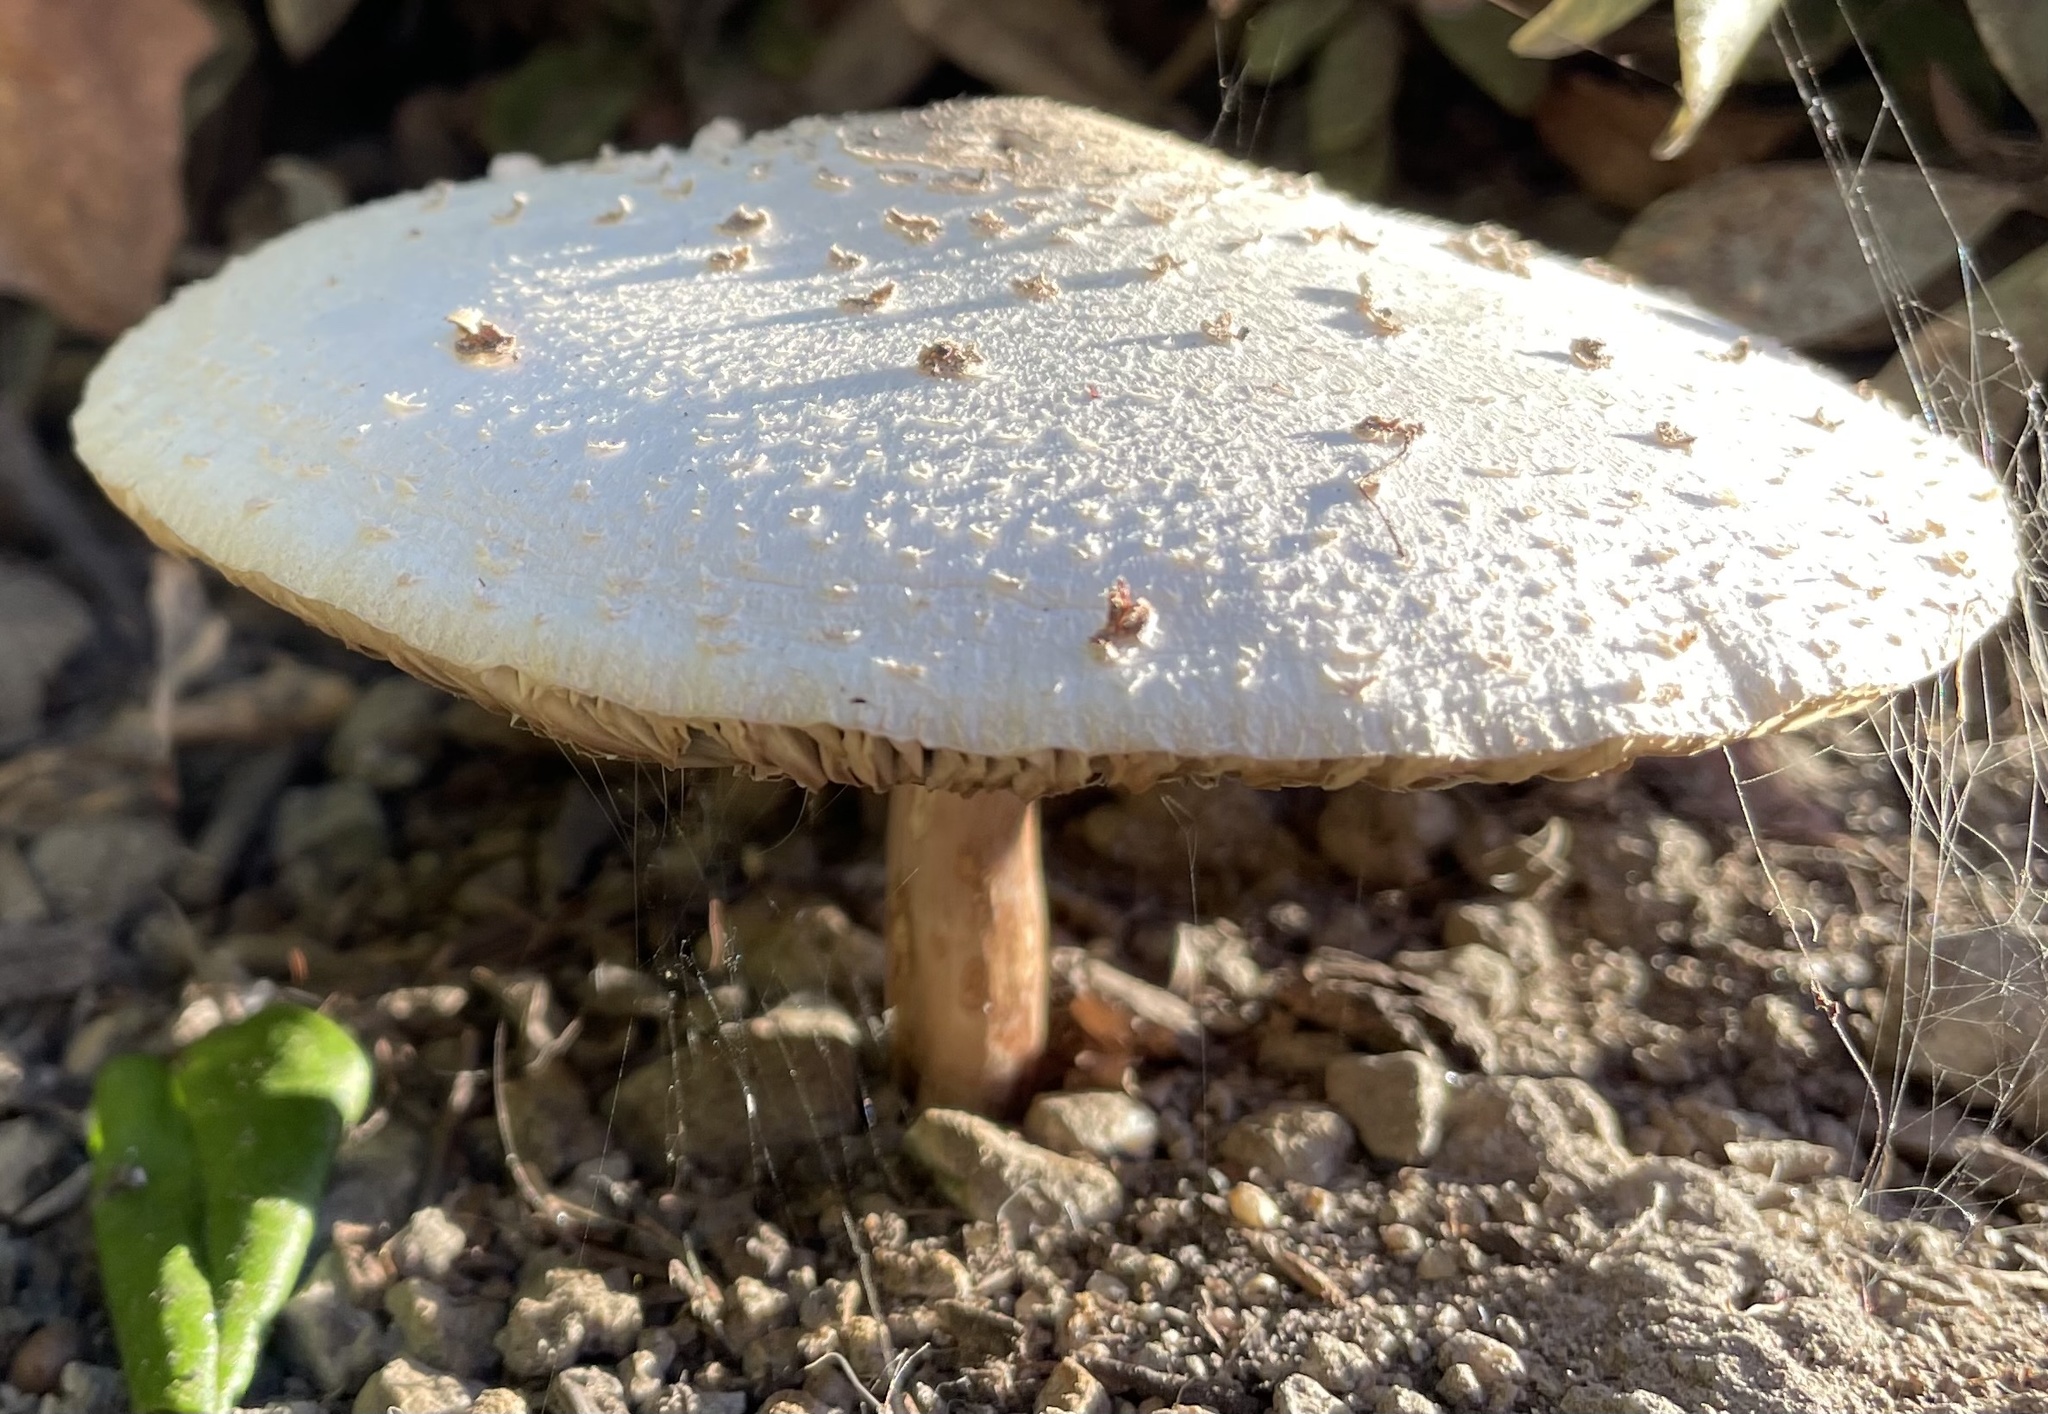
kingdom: Fungi
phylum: Basidiomycota
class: Agaricomycetes
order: Agaricales
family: Agaricaceae
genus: Chlorophyllum
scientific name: Chlorophyllum molybdites
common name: False parasol
